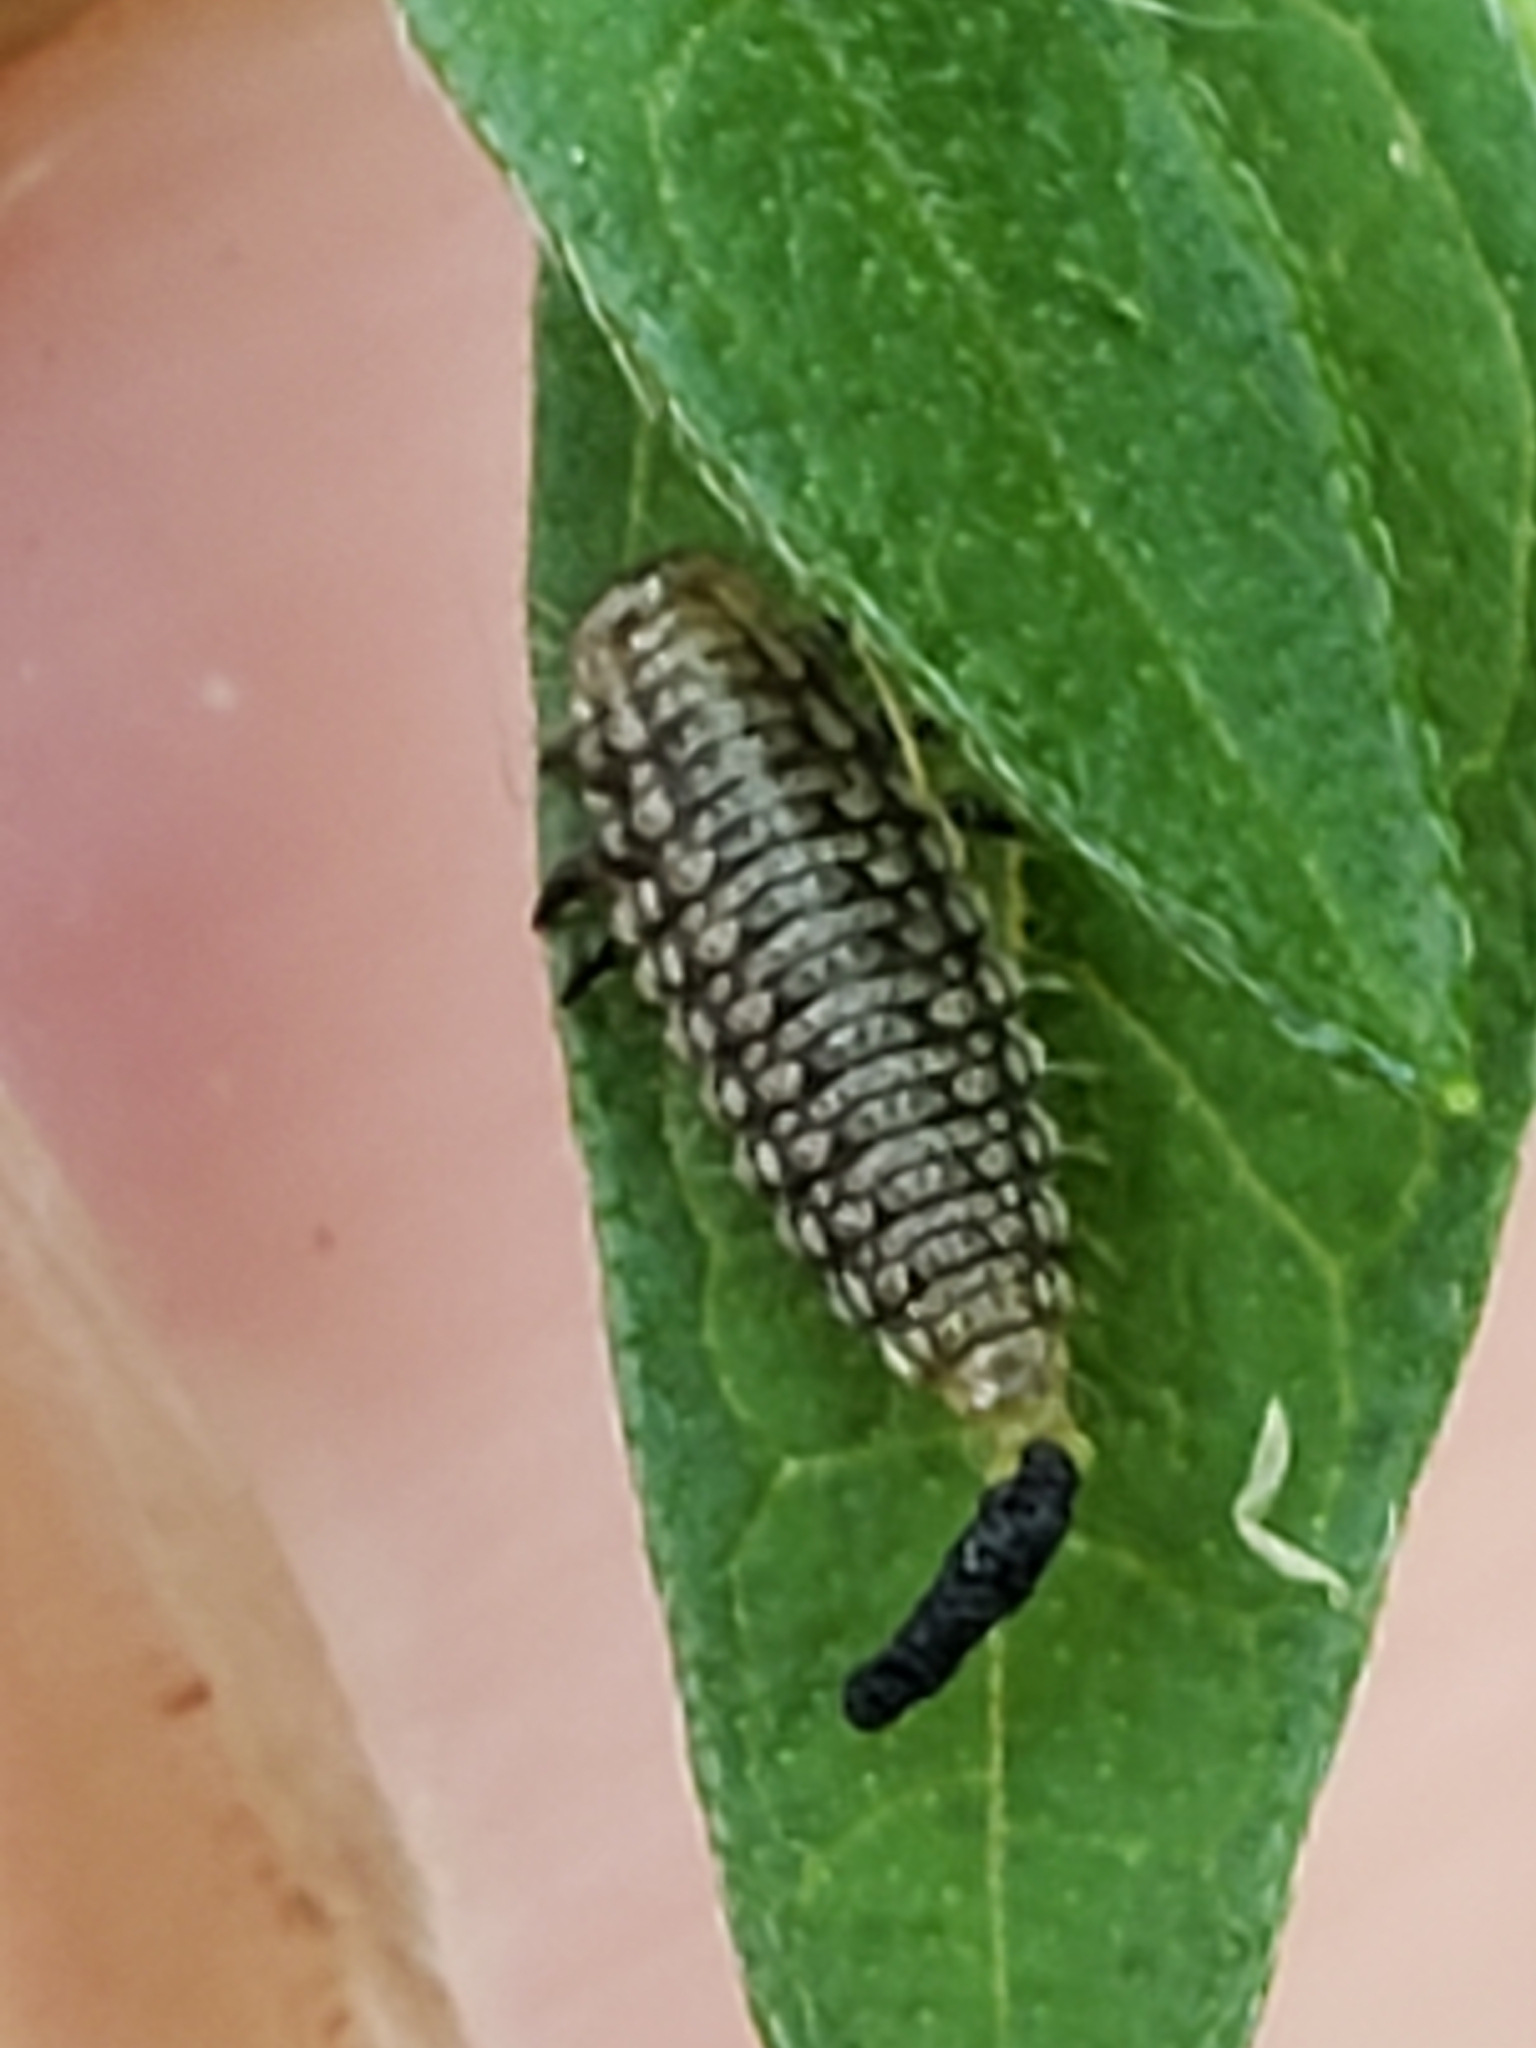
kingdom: Animalia
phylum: Arthropoda
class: Insecta
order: Coleoptera
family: Chrysomelidae
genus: Ophraella
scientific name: Ophraella communa
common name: Ragweed leaf beetle
